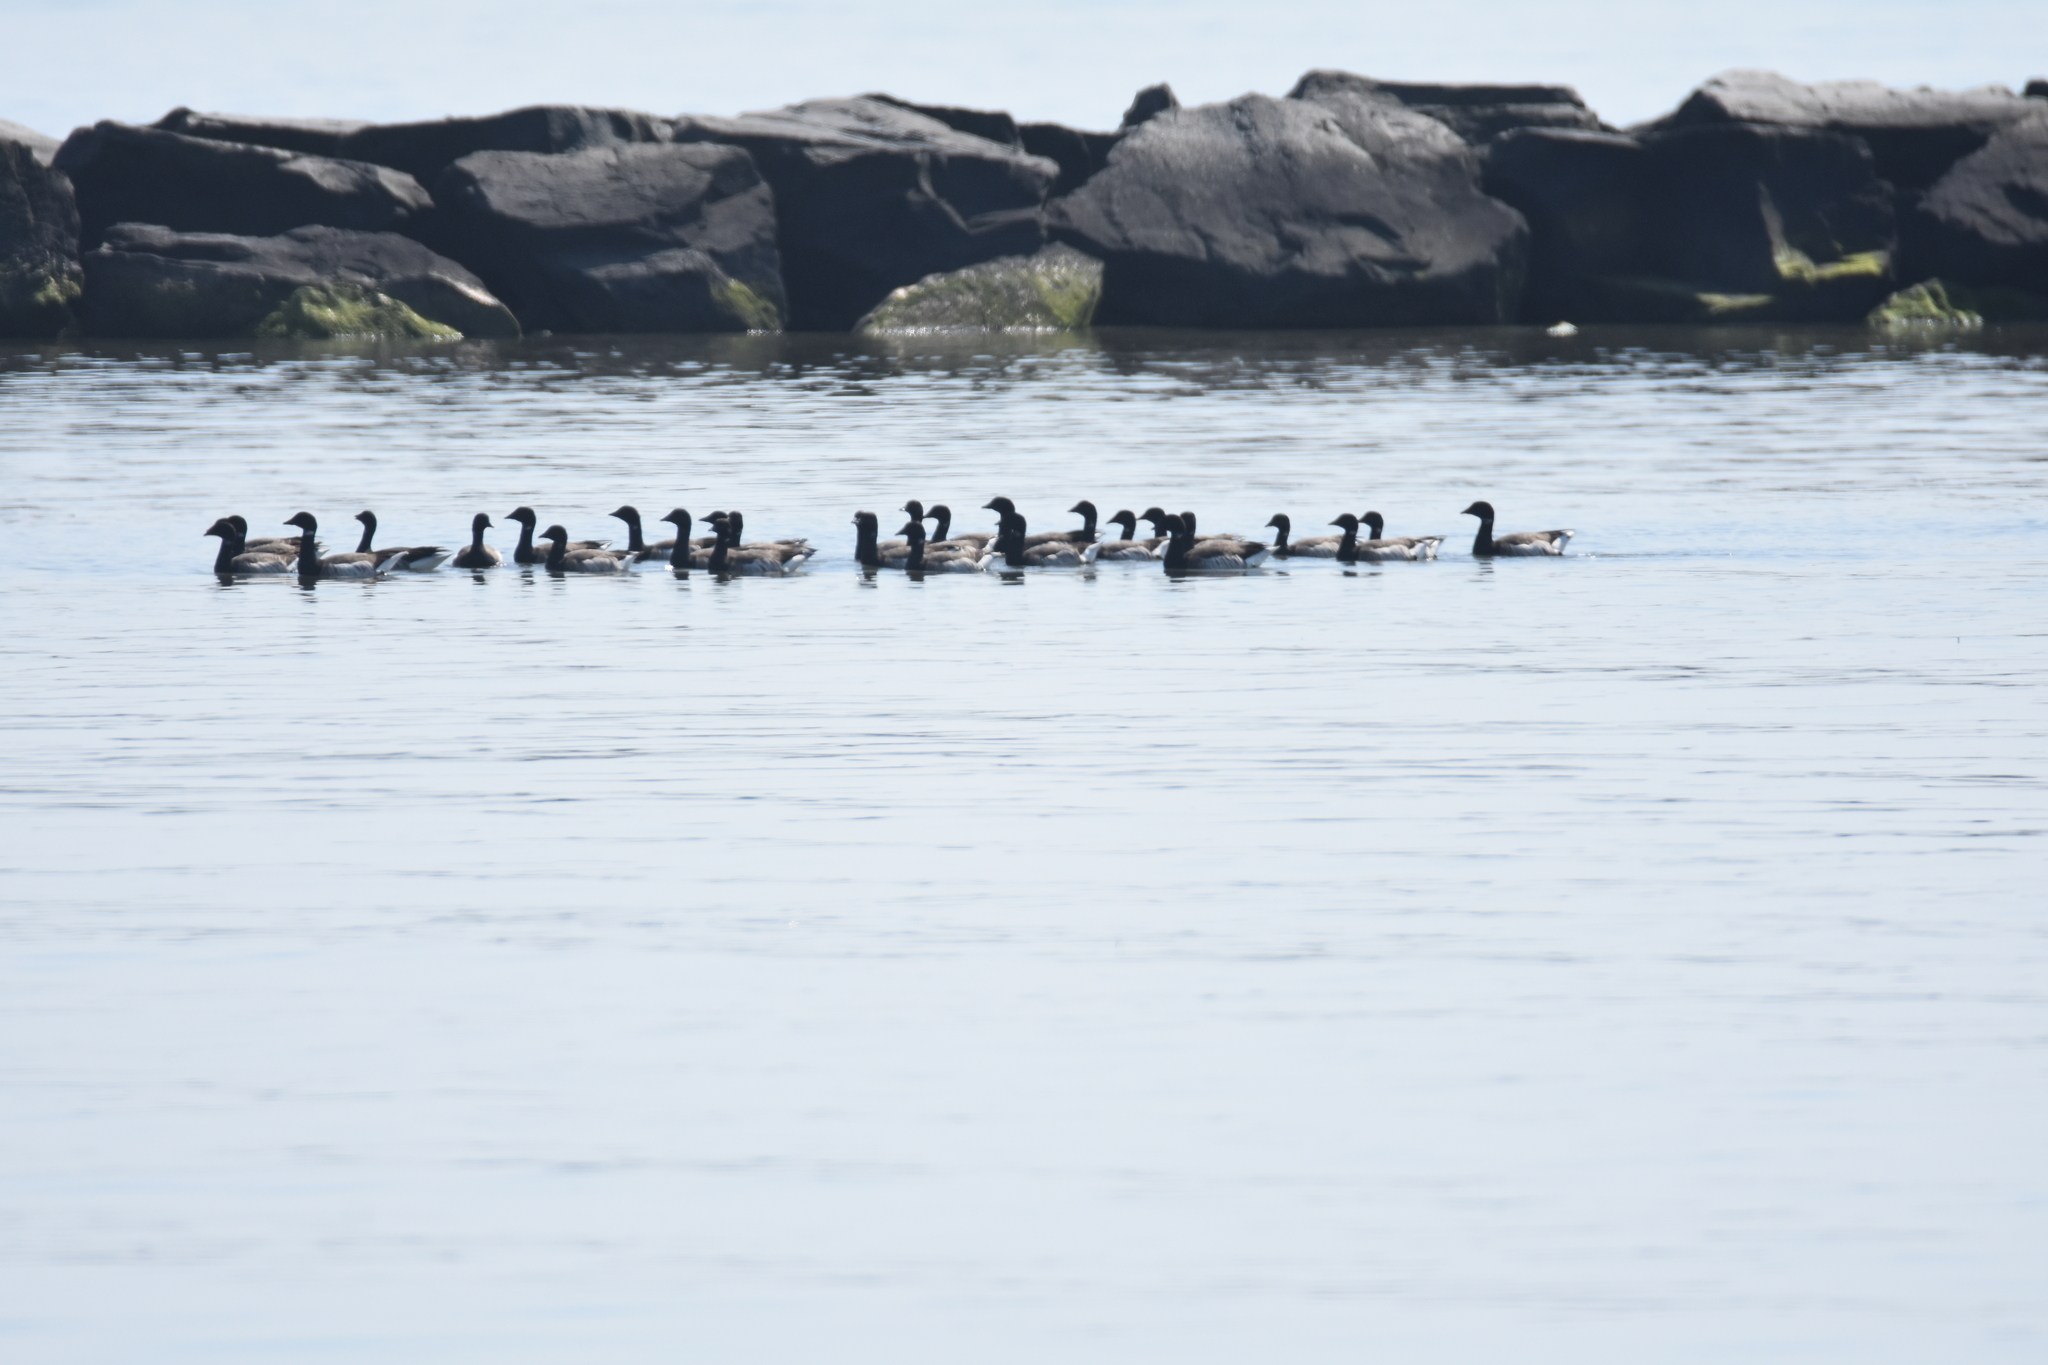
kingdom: Animalia
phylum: Chordata
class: Aves
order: Anseriformes
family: Anatidae
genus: Branta
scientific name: Branta bernicla
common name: Brant goose
